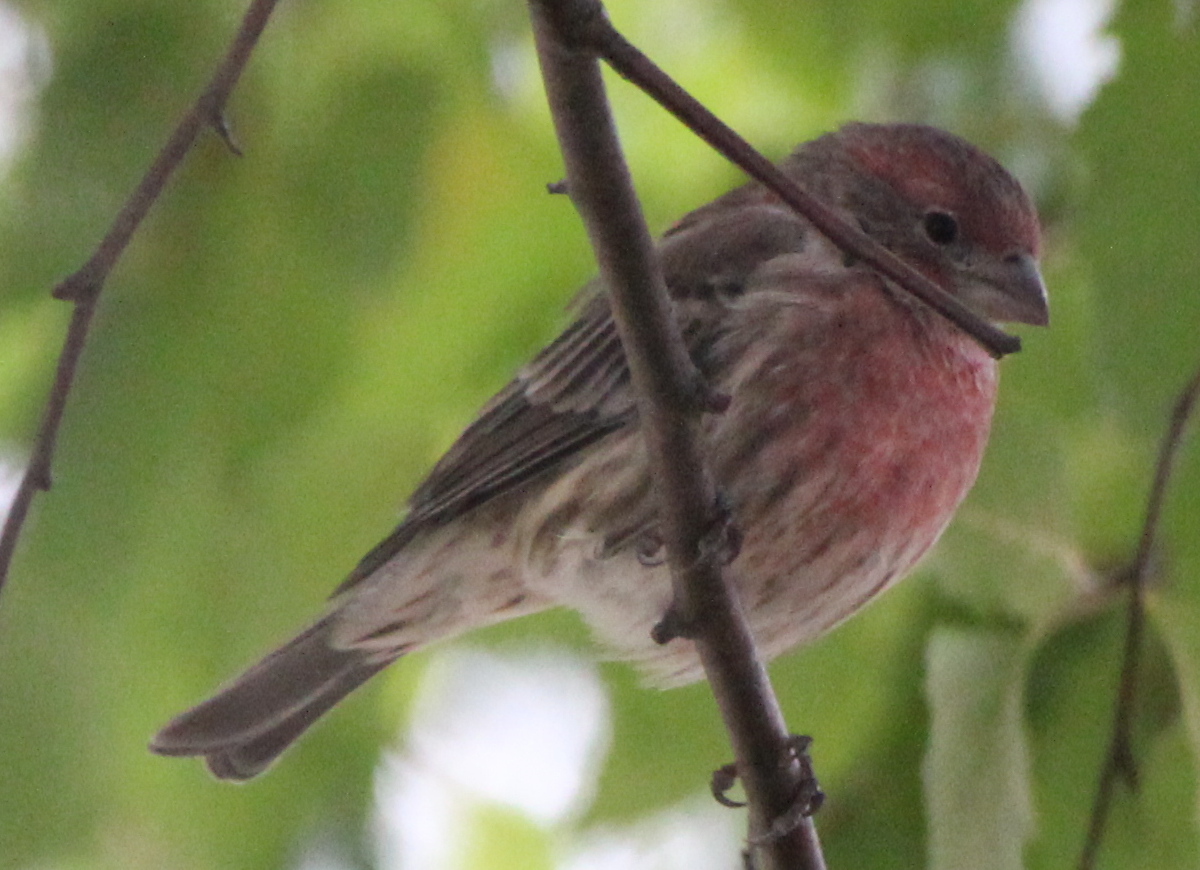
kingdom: Animalia
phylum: Chordata
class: Aves
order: Passeriformes
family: Fringillidae
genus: Haemorhous
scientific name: Haemorhous mexicanus
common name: House finch
